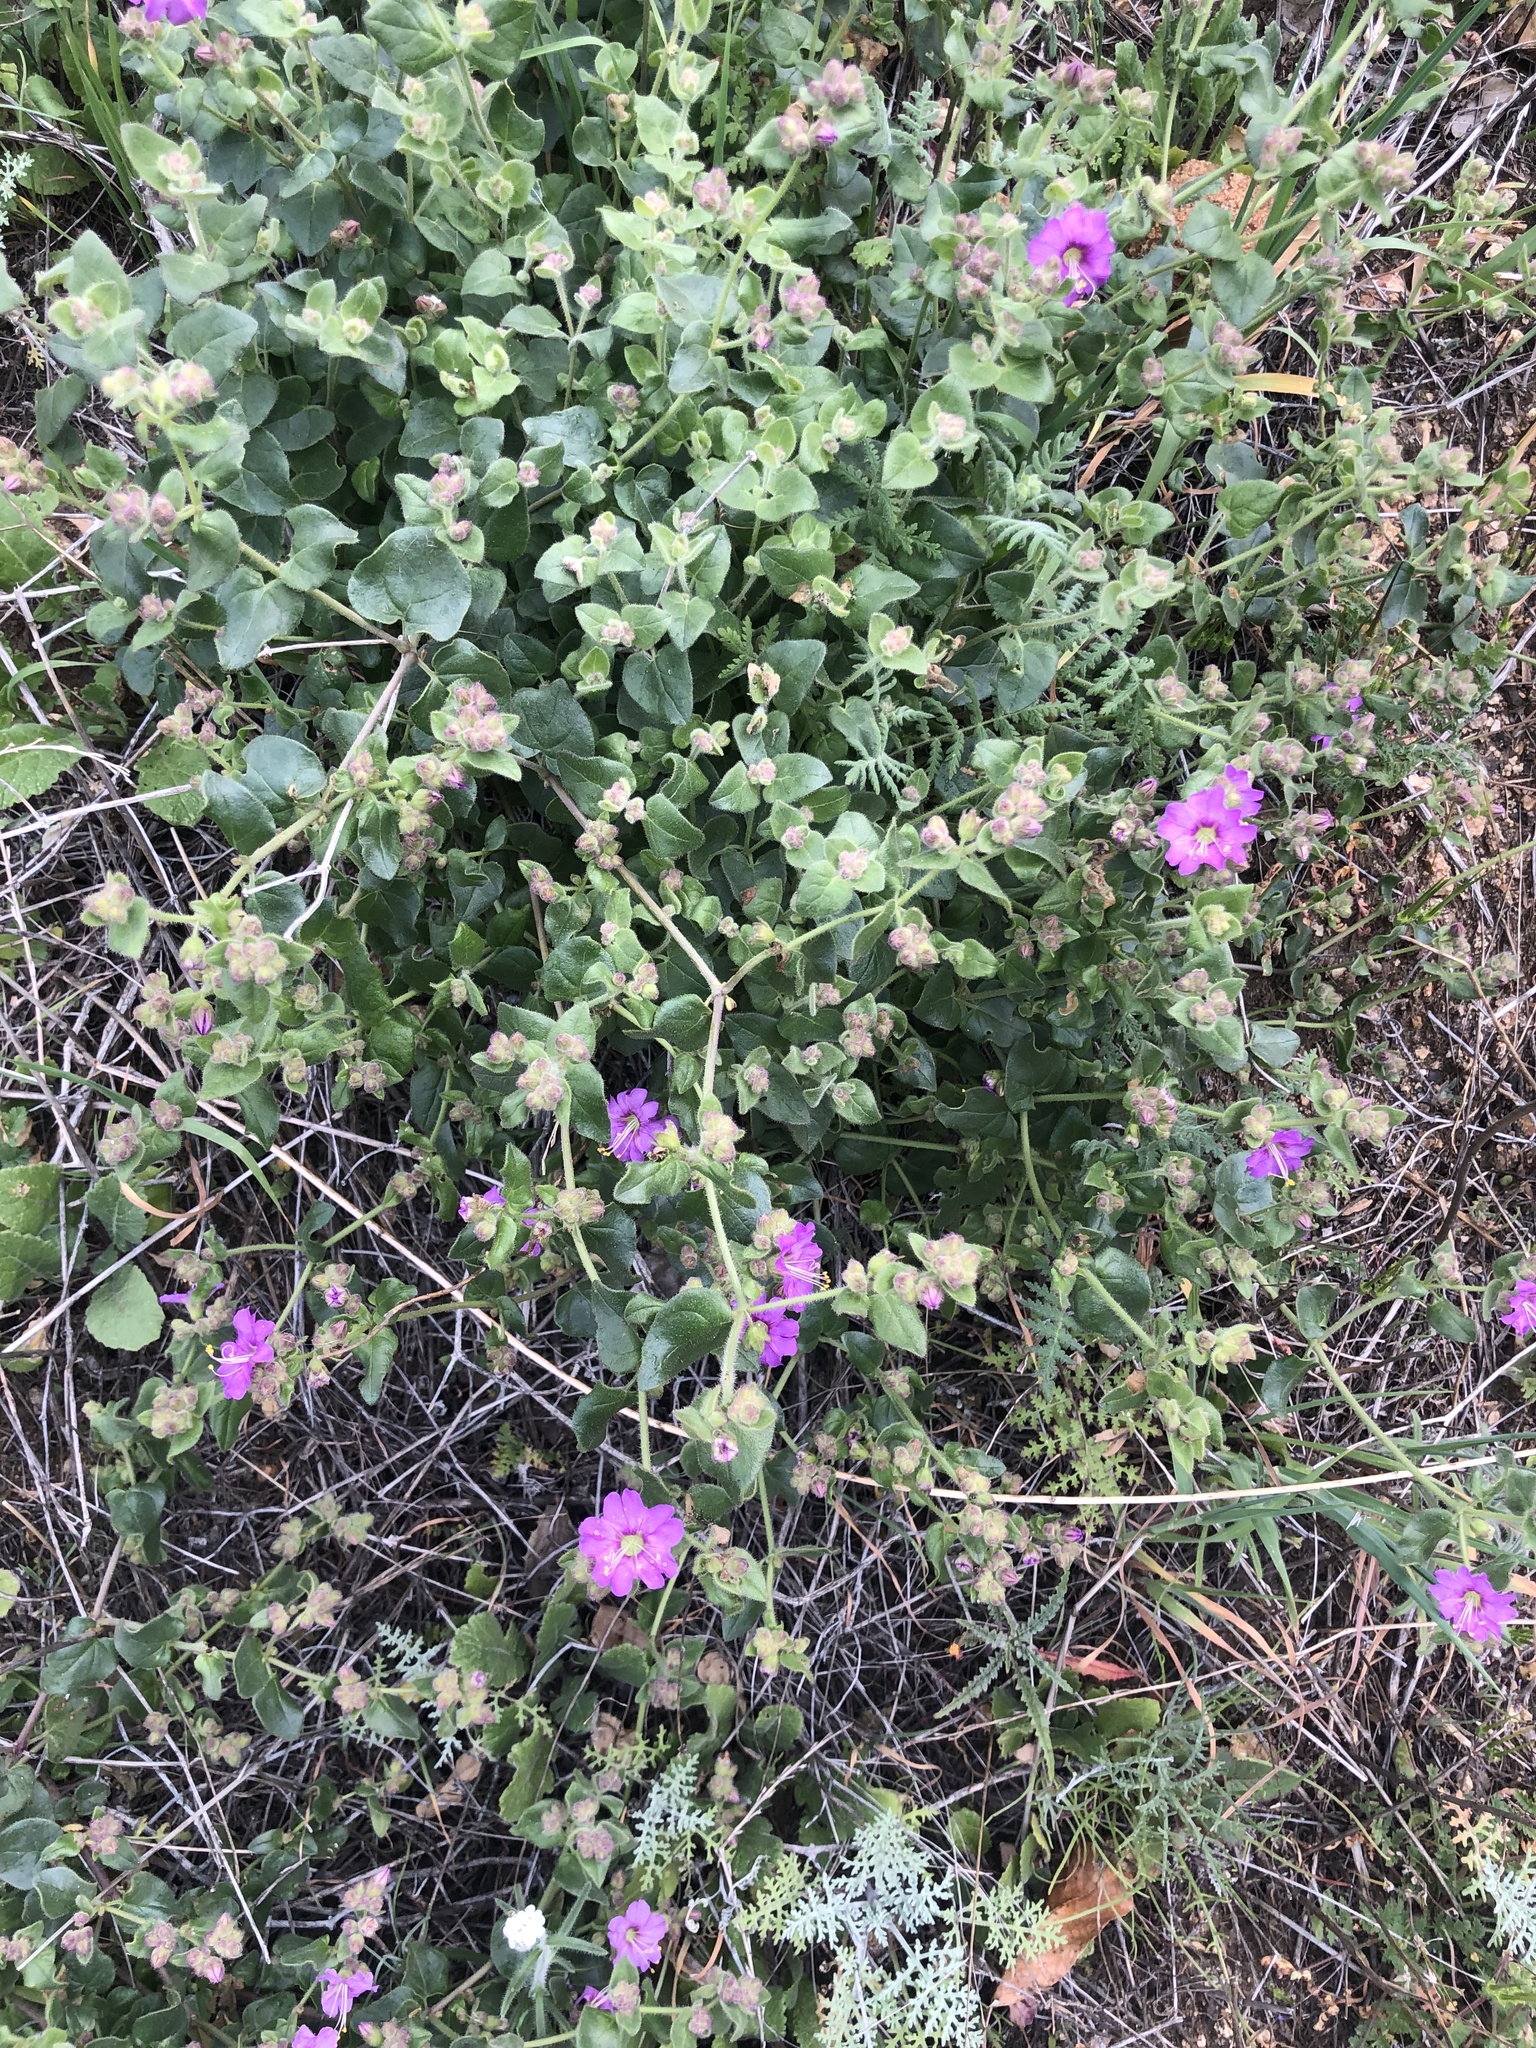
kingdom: Plantae
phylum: Tracheophyta
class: Magnoliopsida
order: Caryophyllales
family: Nyctaginaceae
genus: Mirabilis
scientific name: Mirabilis laevis
